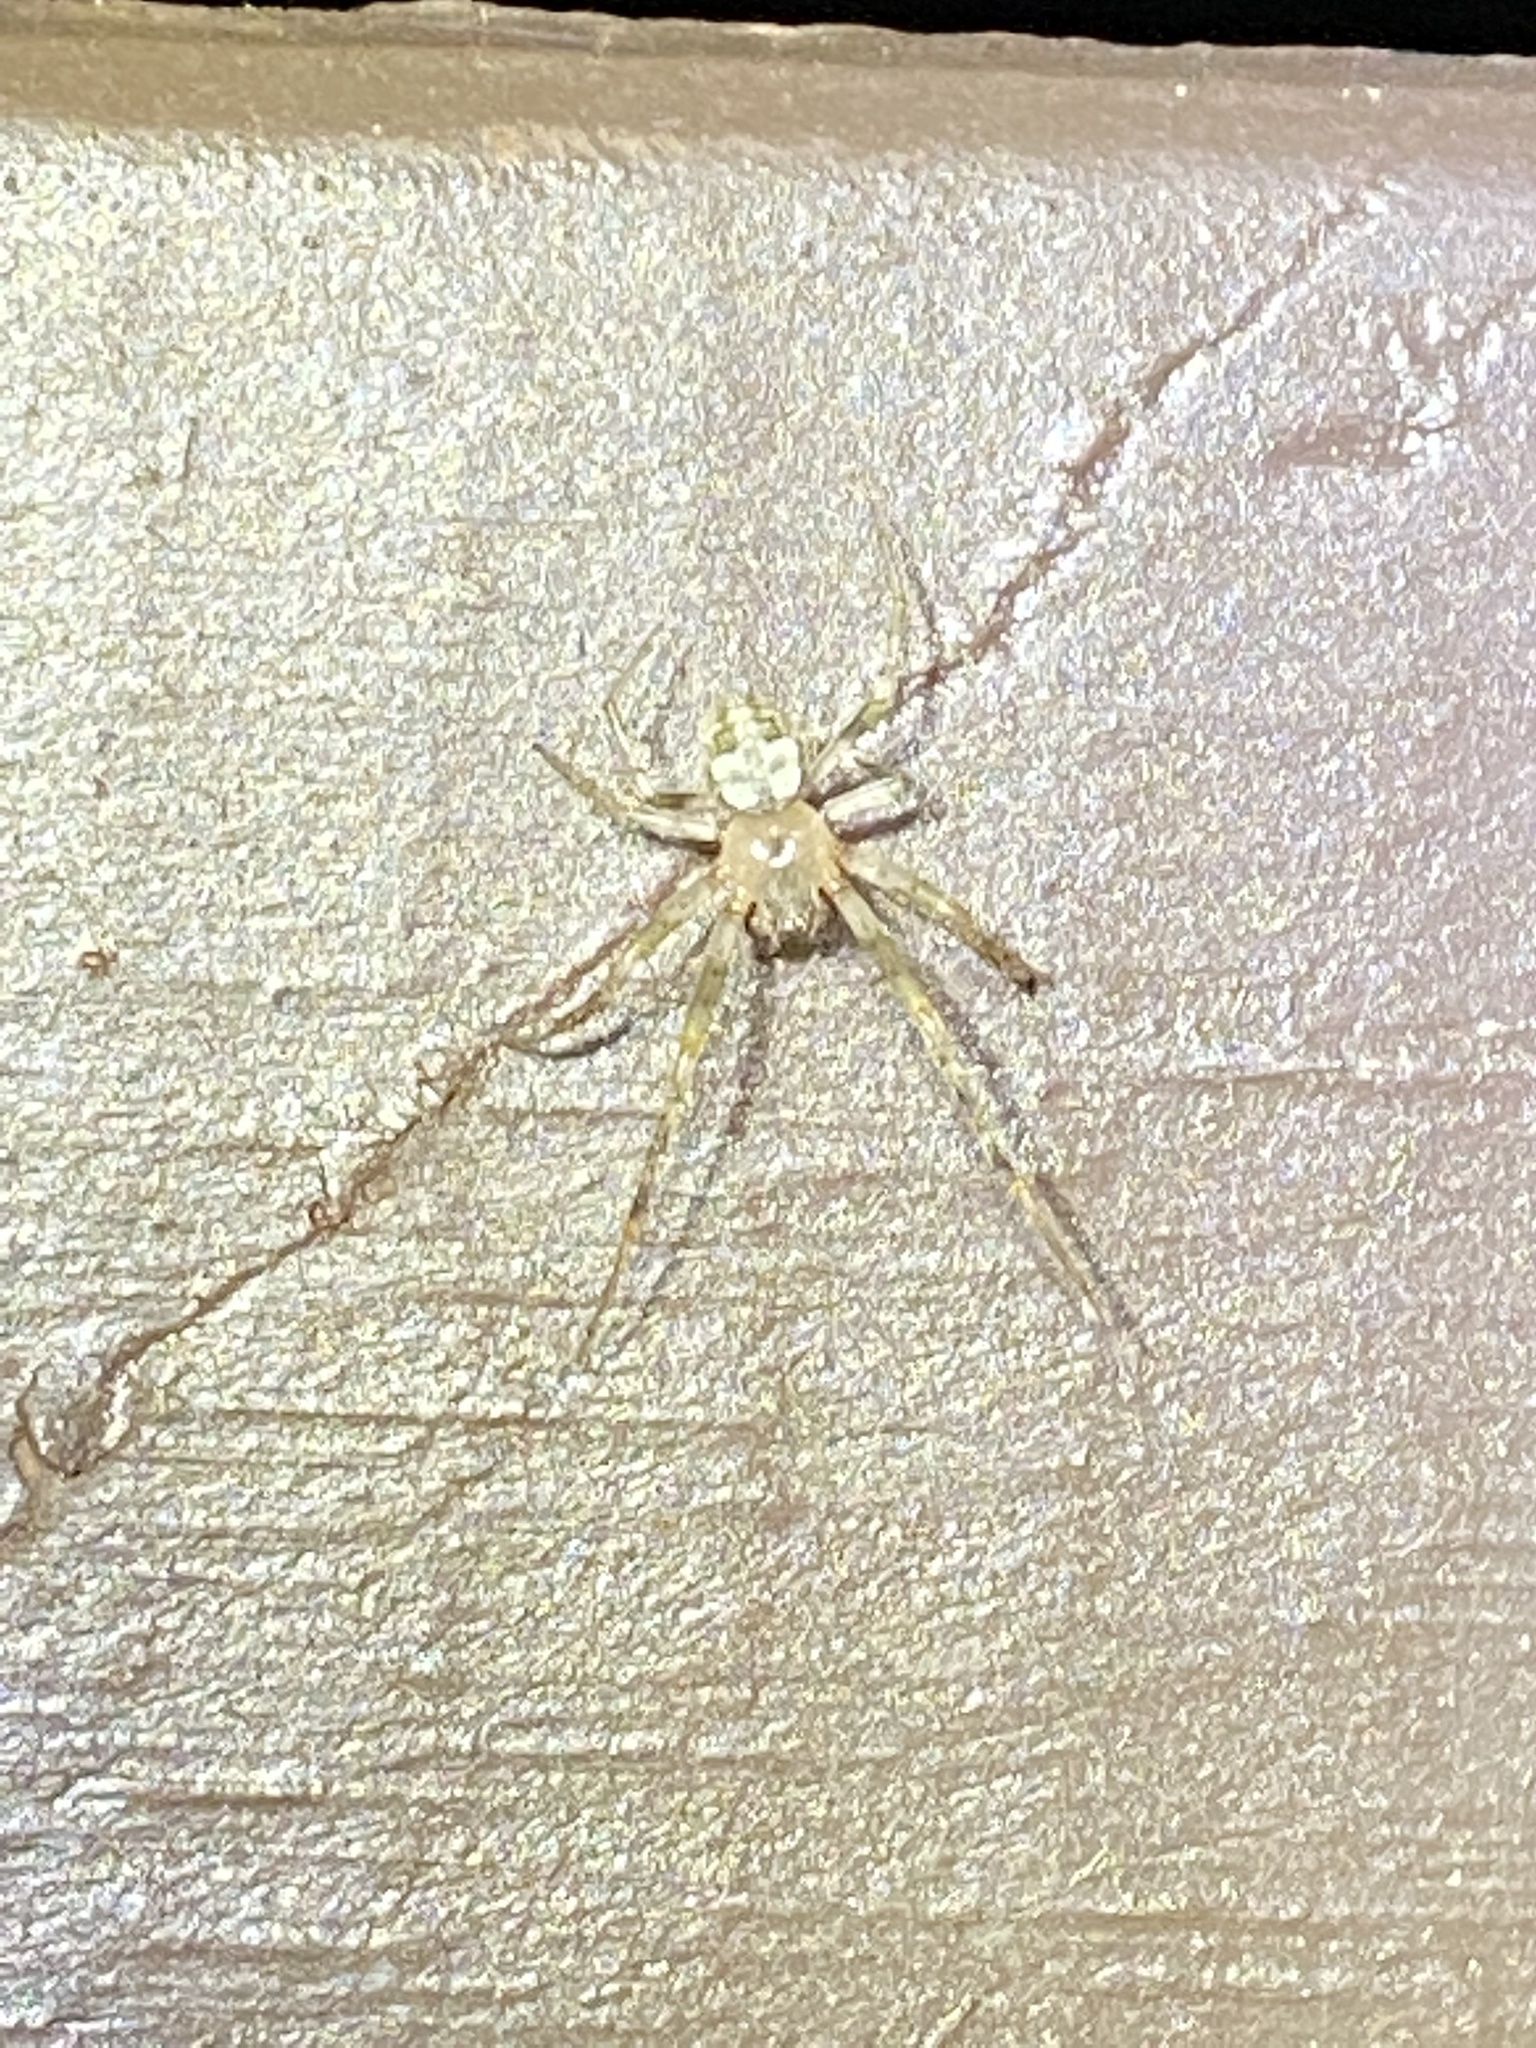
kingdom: Animalia
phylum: Arthropoda
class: Arachnida
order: Araneae
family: Araneidae
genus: Araneus
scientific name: Araneus pegnia
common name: Orb weavers
